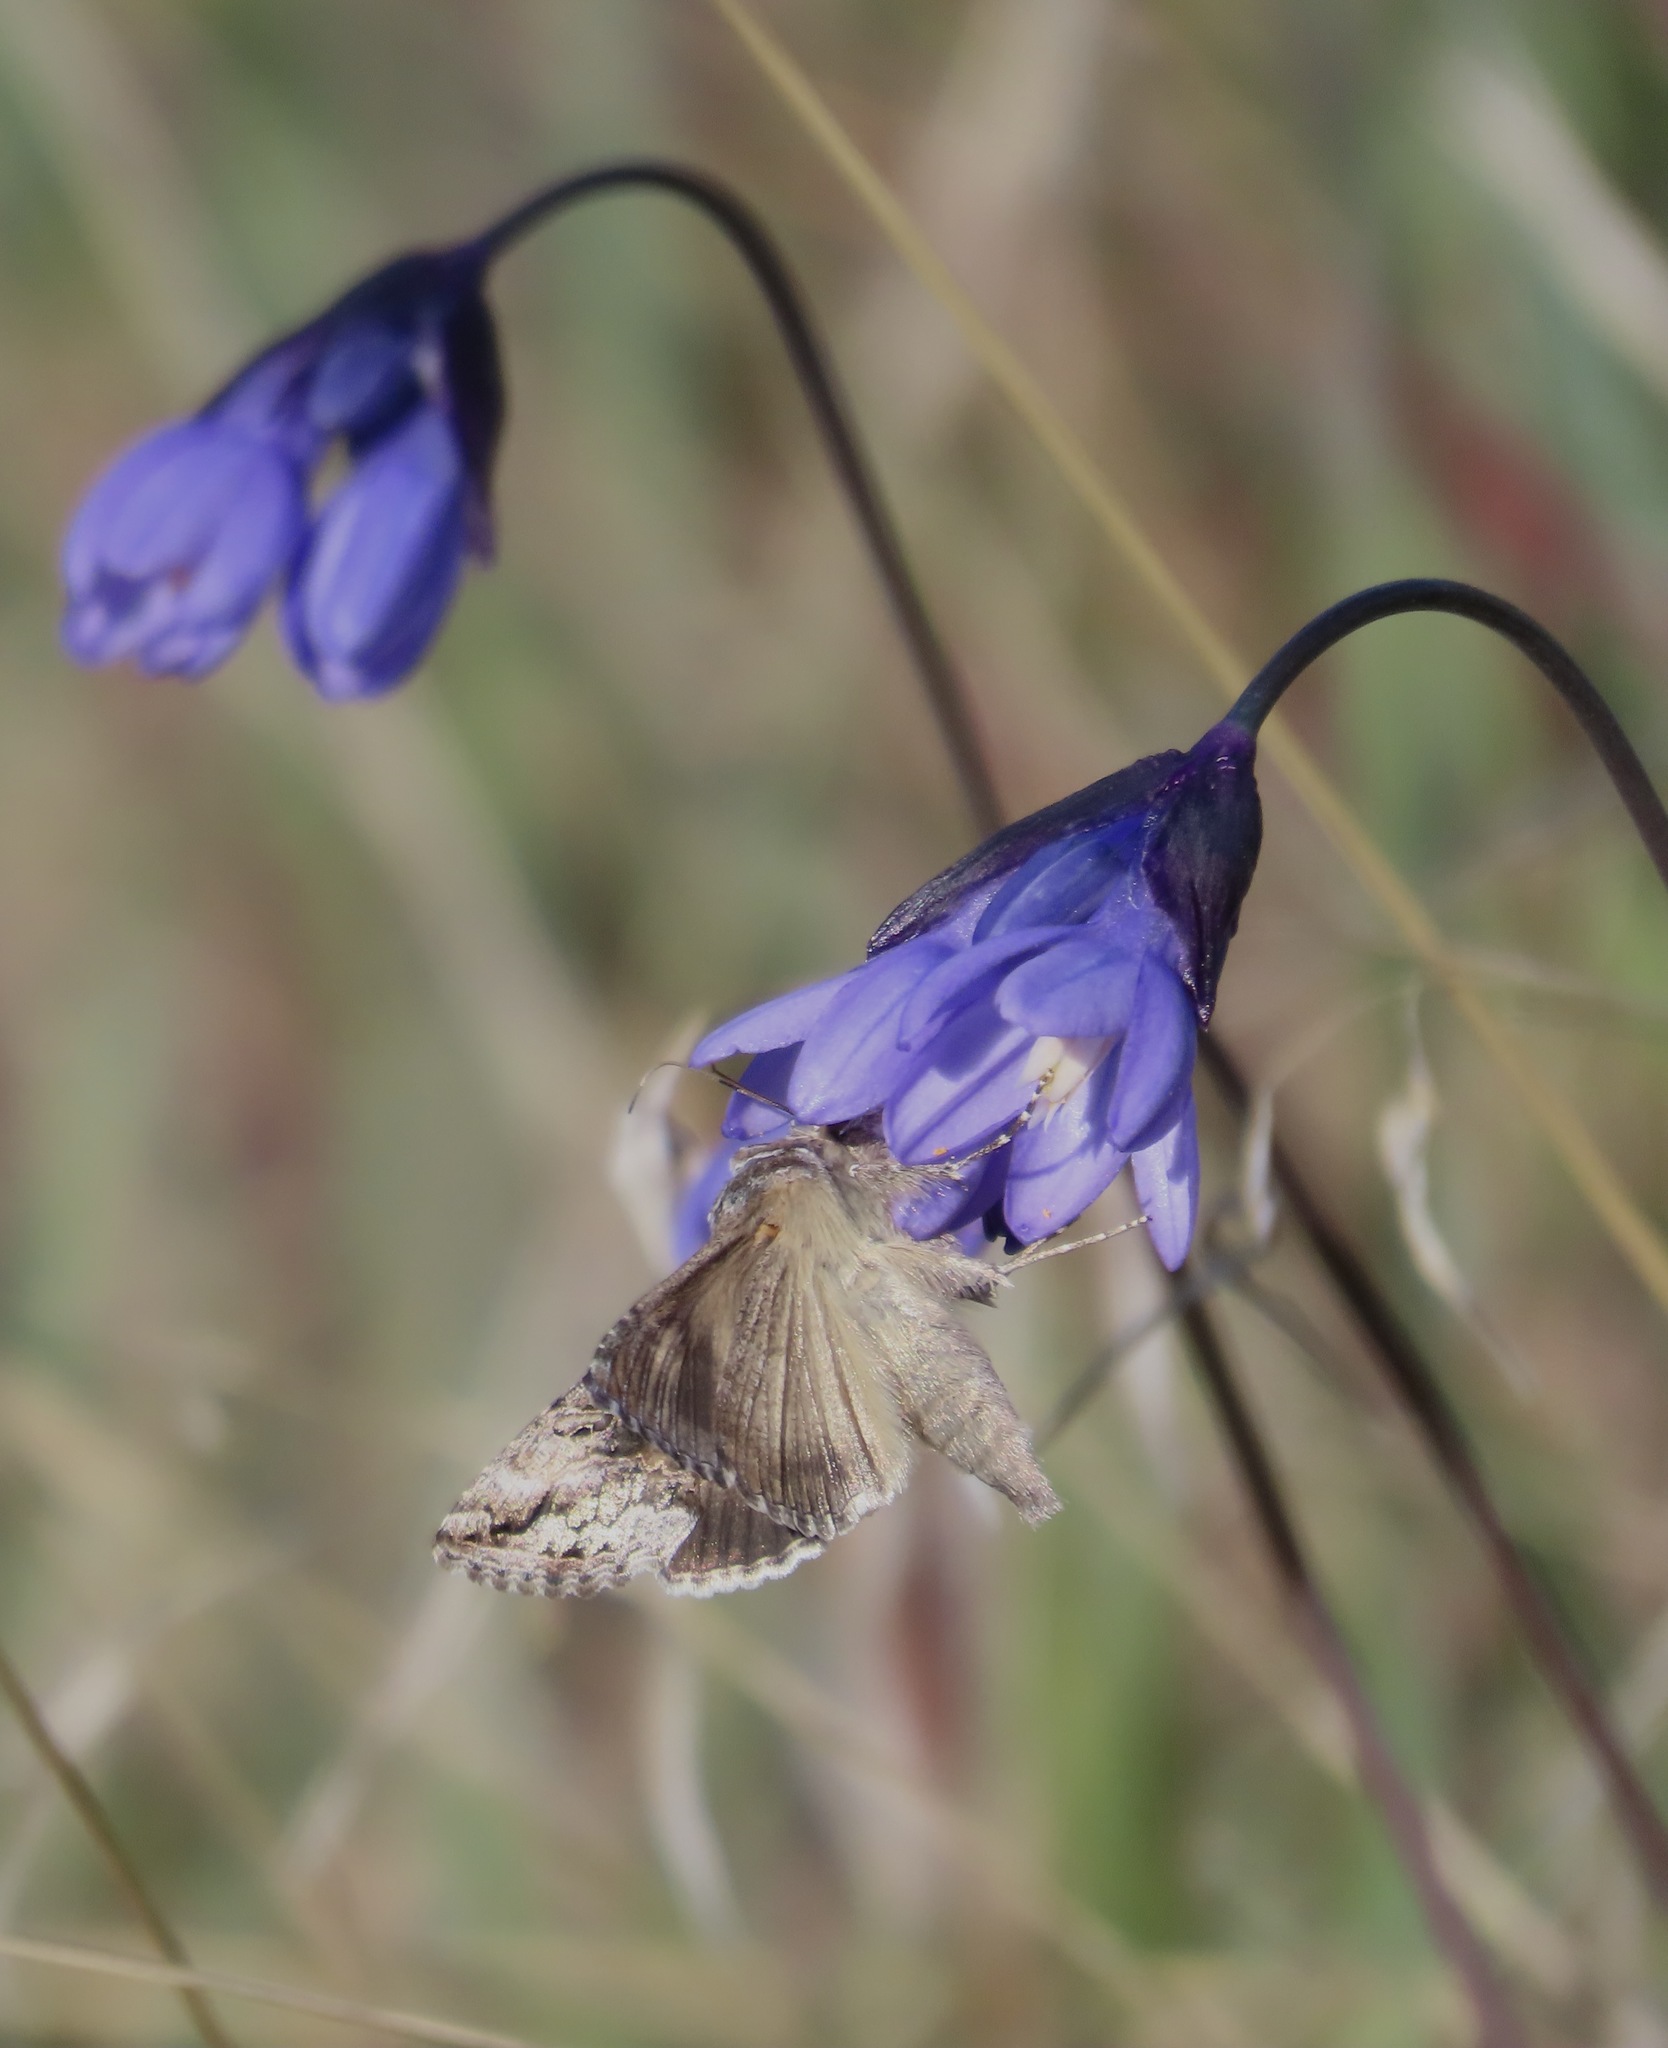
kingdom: Animalia
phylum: Arthropoda
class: Insecta
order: Lepidoptera
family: Noctuidae
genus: Autographa
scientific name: Autographa californica
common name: Alfalfa looper
